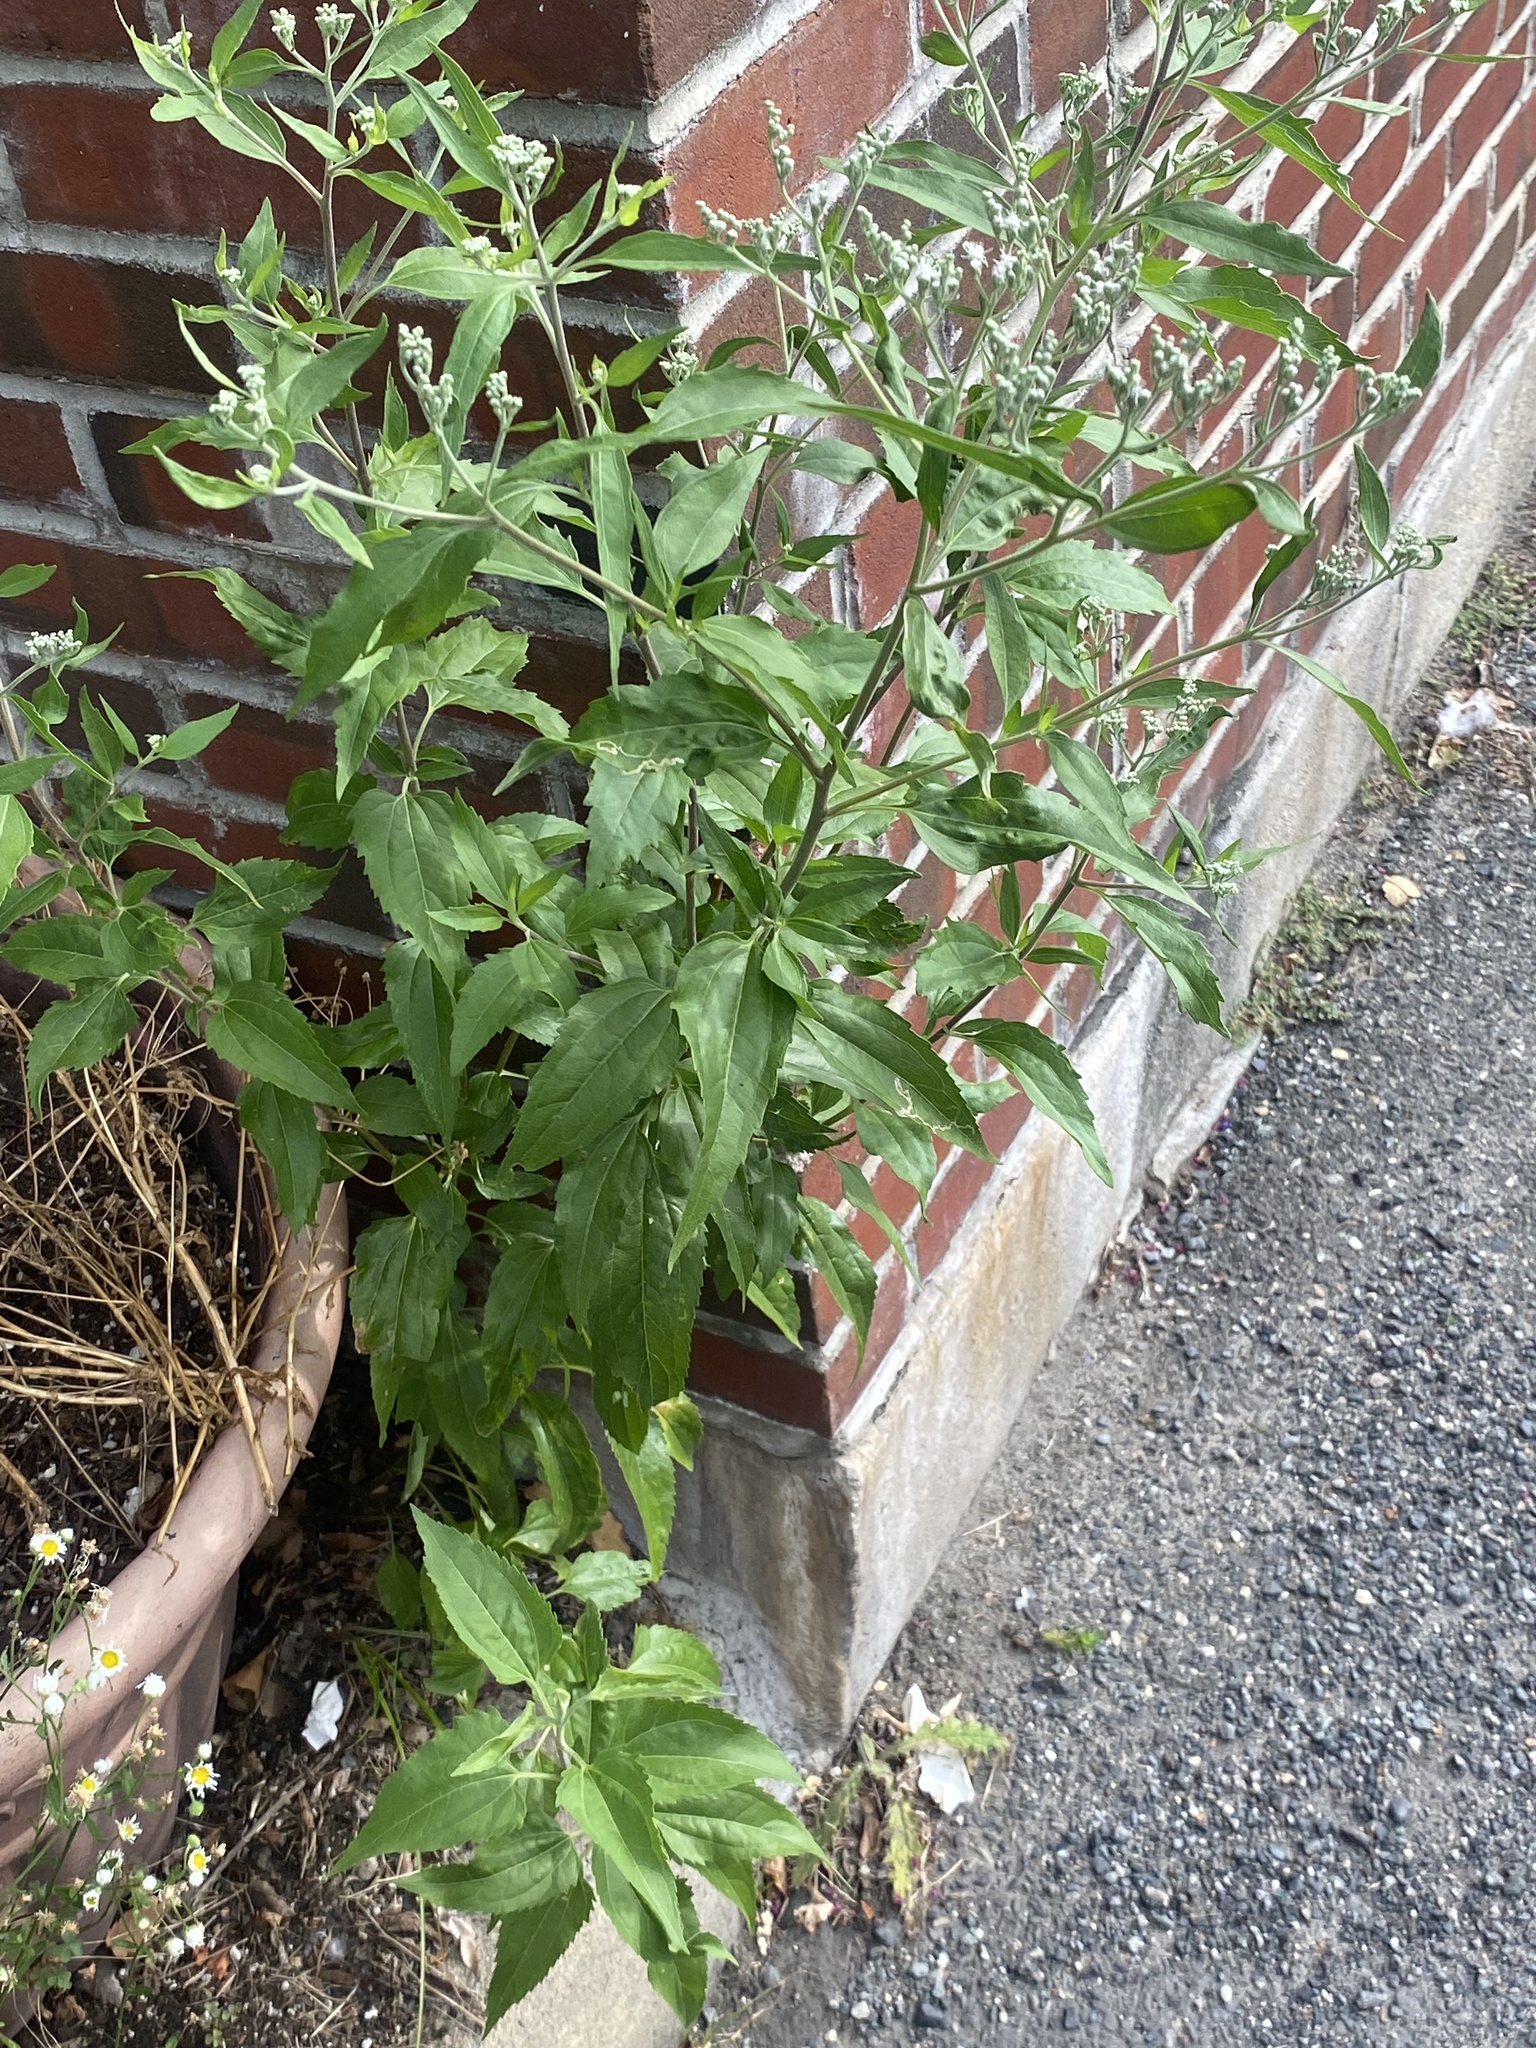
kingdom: Plantae
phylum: Tracheophyta
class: Magnoliopsida
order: Asterales
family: Asteraceae
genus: Eupatorium
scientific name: Eupatorium serotinum
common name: Late boneset
